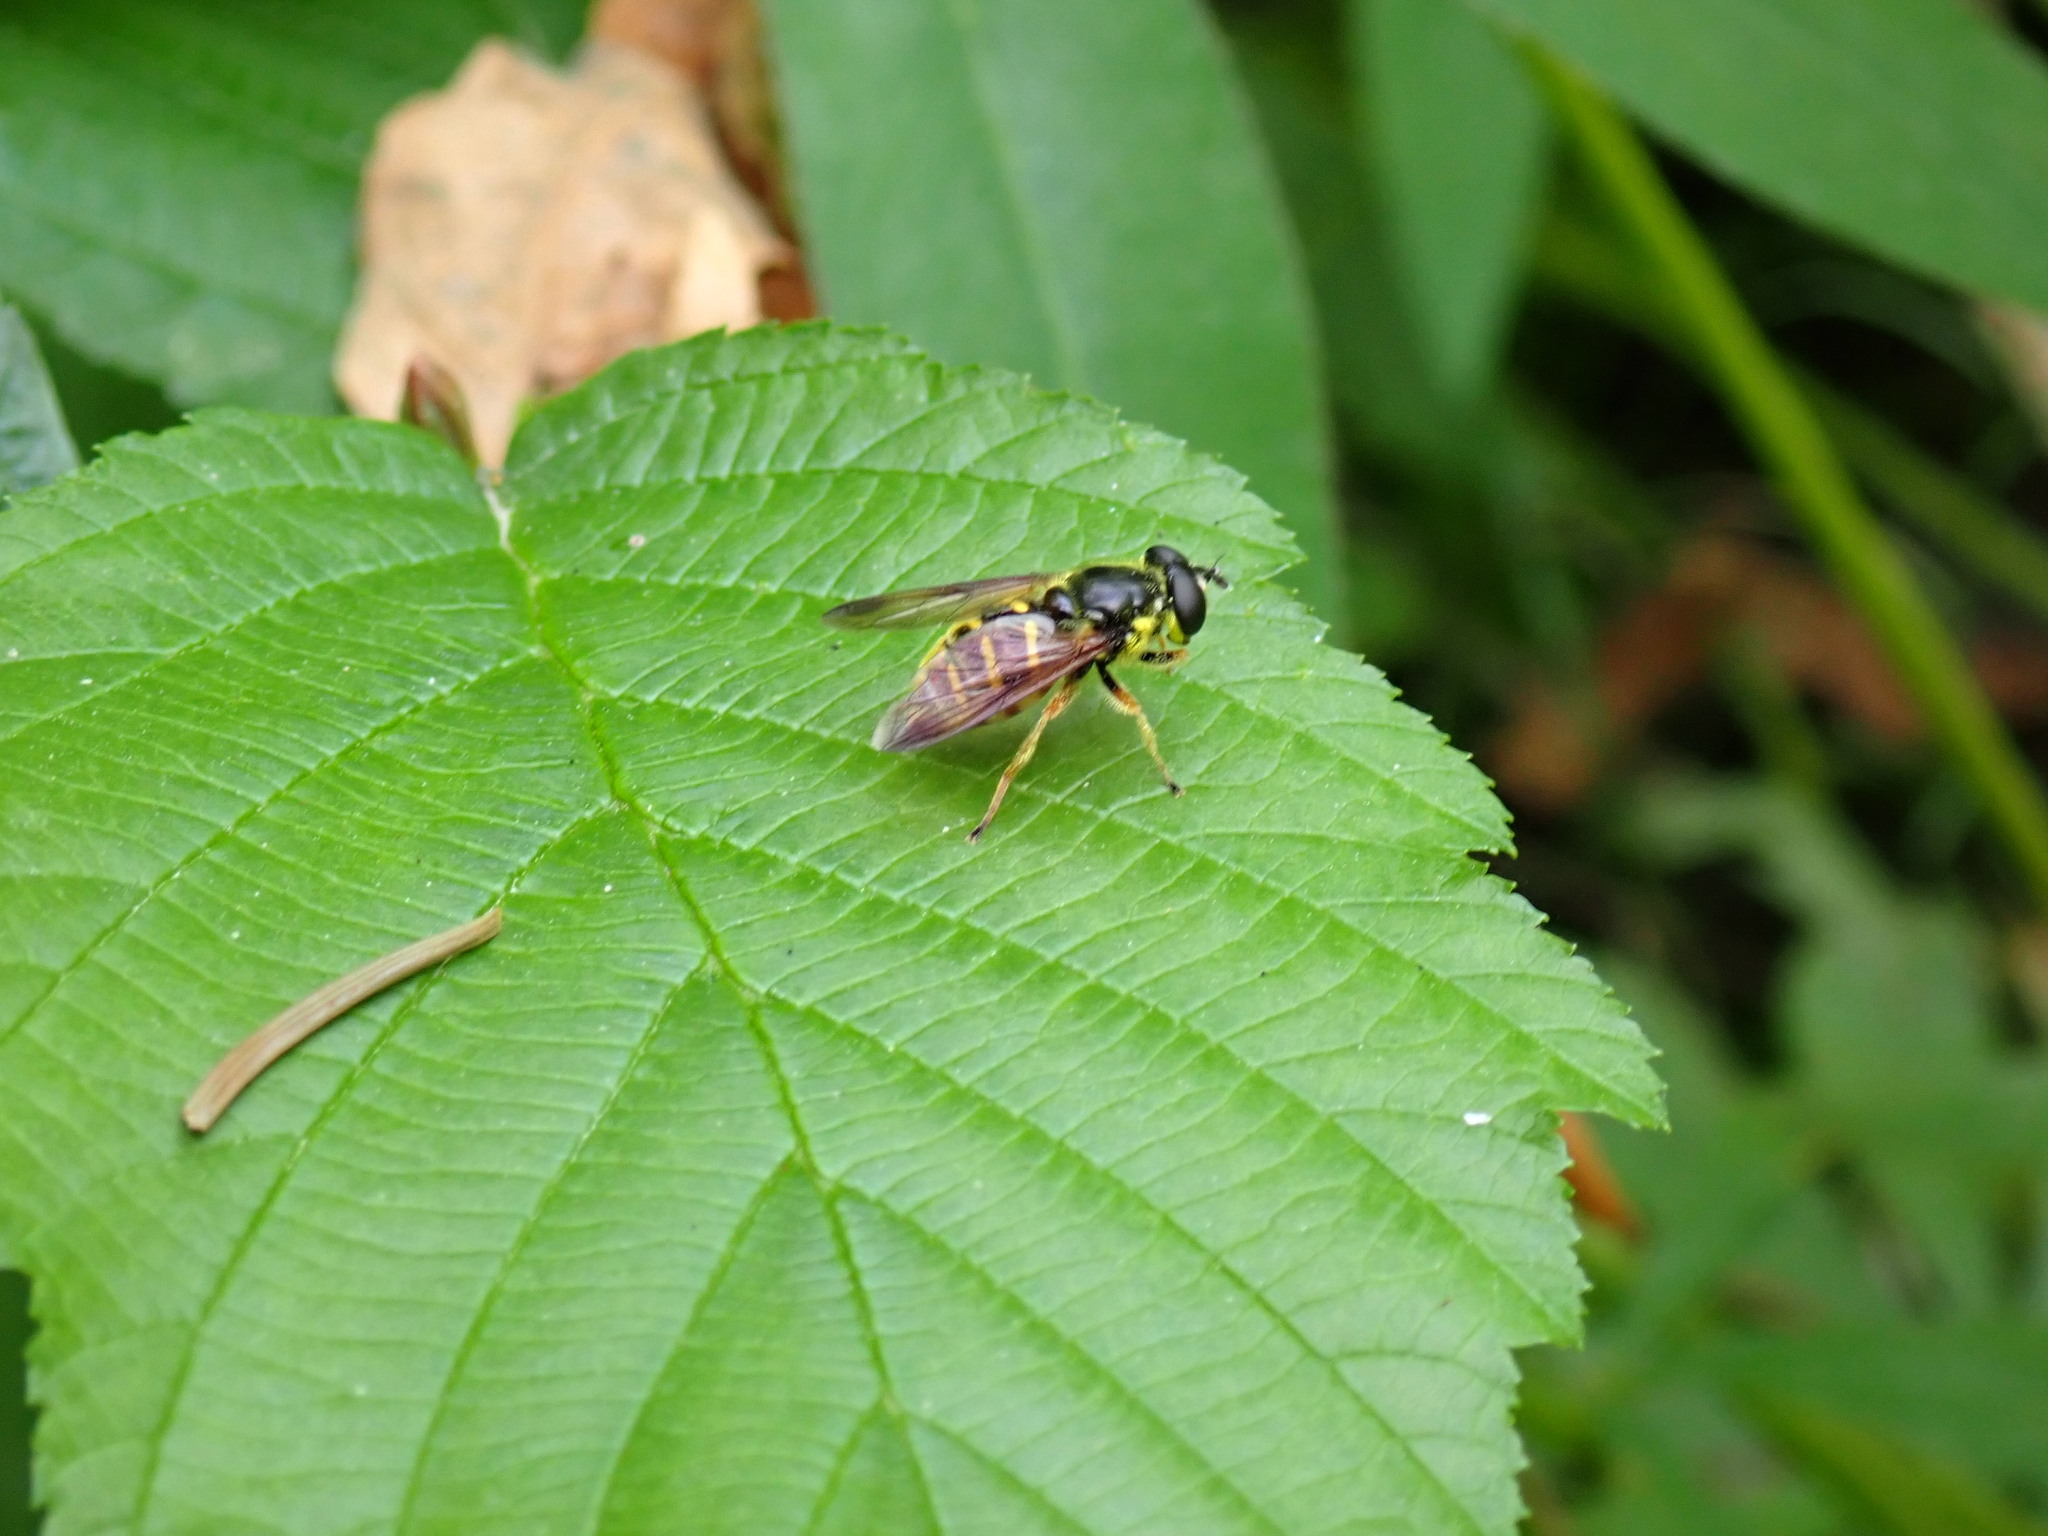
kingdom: Animalia
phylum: Arthropoda
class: Insecta
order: Diptera
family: Syrphidae
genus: Sericomyia
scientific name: Sericomyia chrysotoxoides
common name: Oblique-banded pond fly
